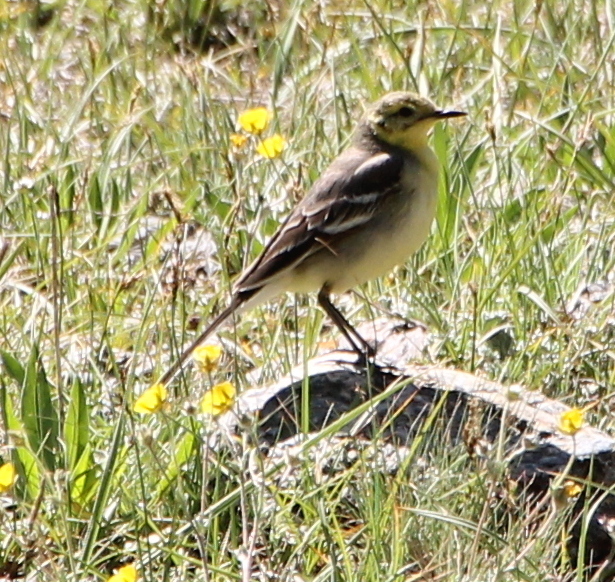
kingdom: Animalia
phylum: Chordata
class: Aves
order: Passeriformes
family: Motacillidae
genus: Motacilla
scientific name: Motacilla citreola
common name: Citrine wagtail
